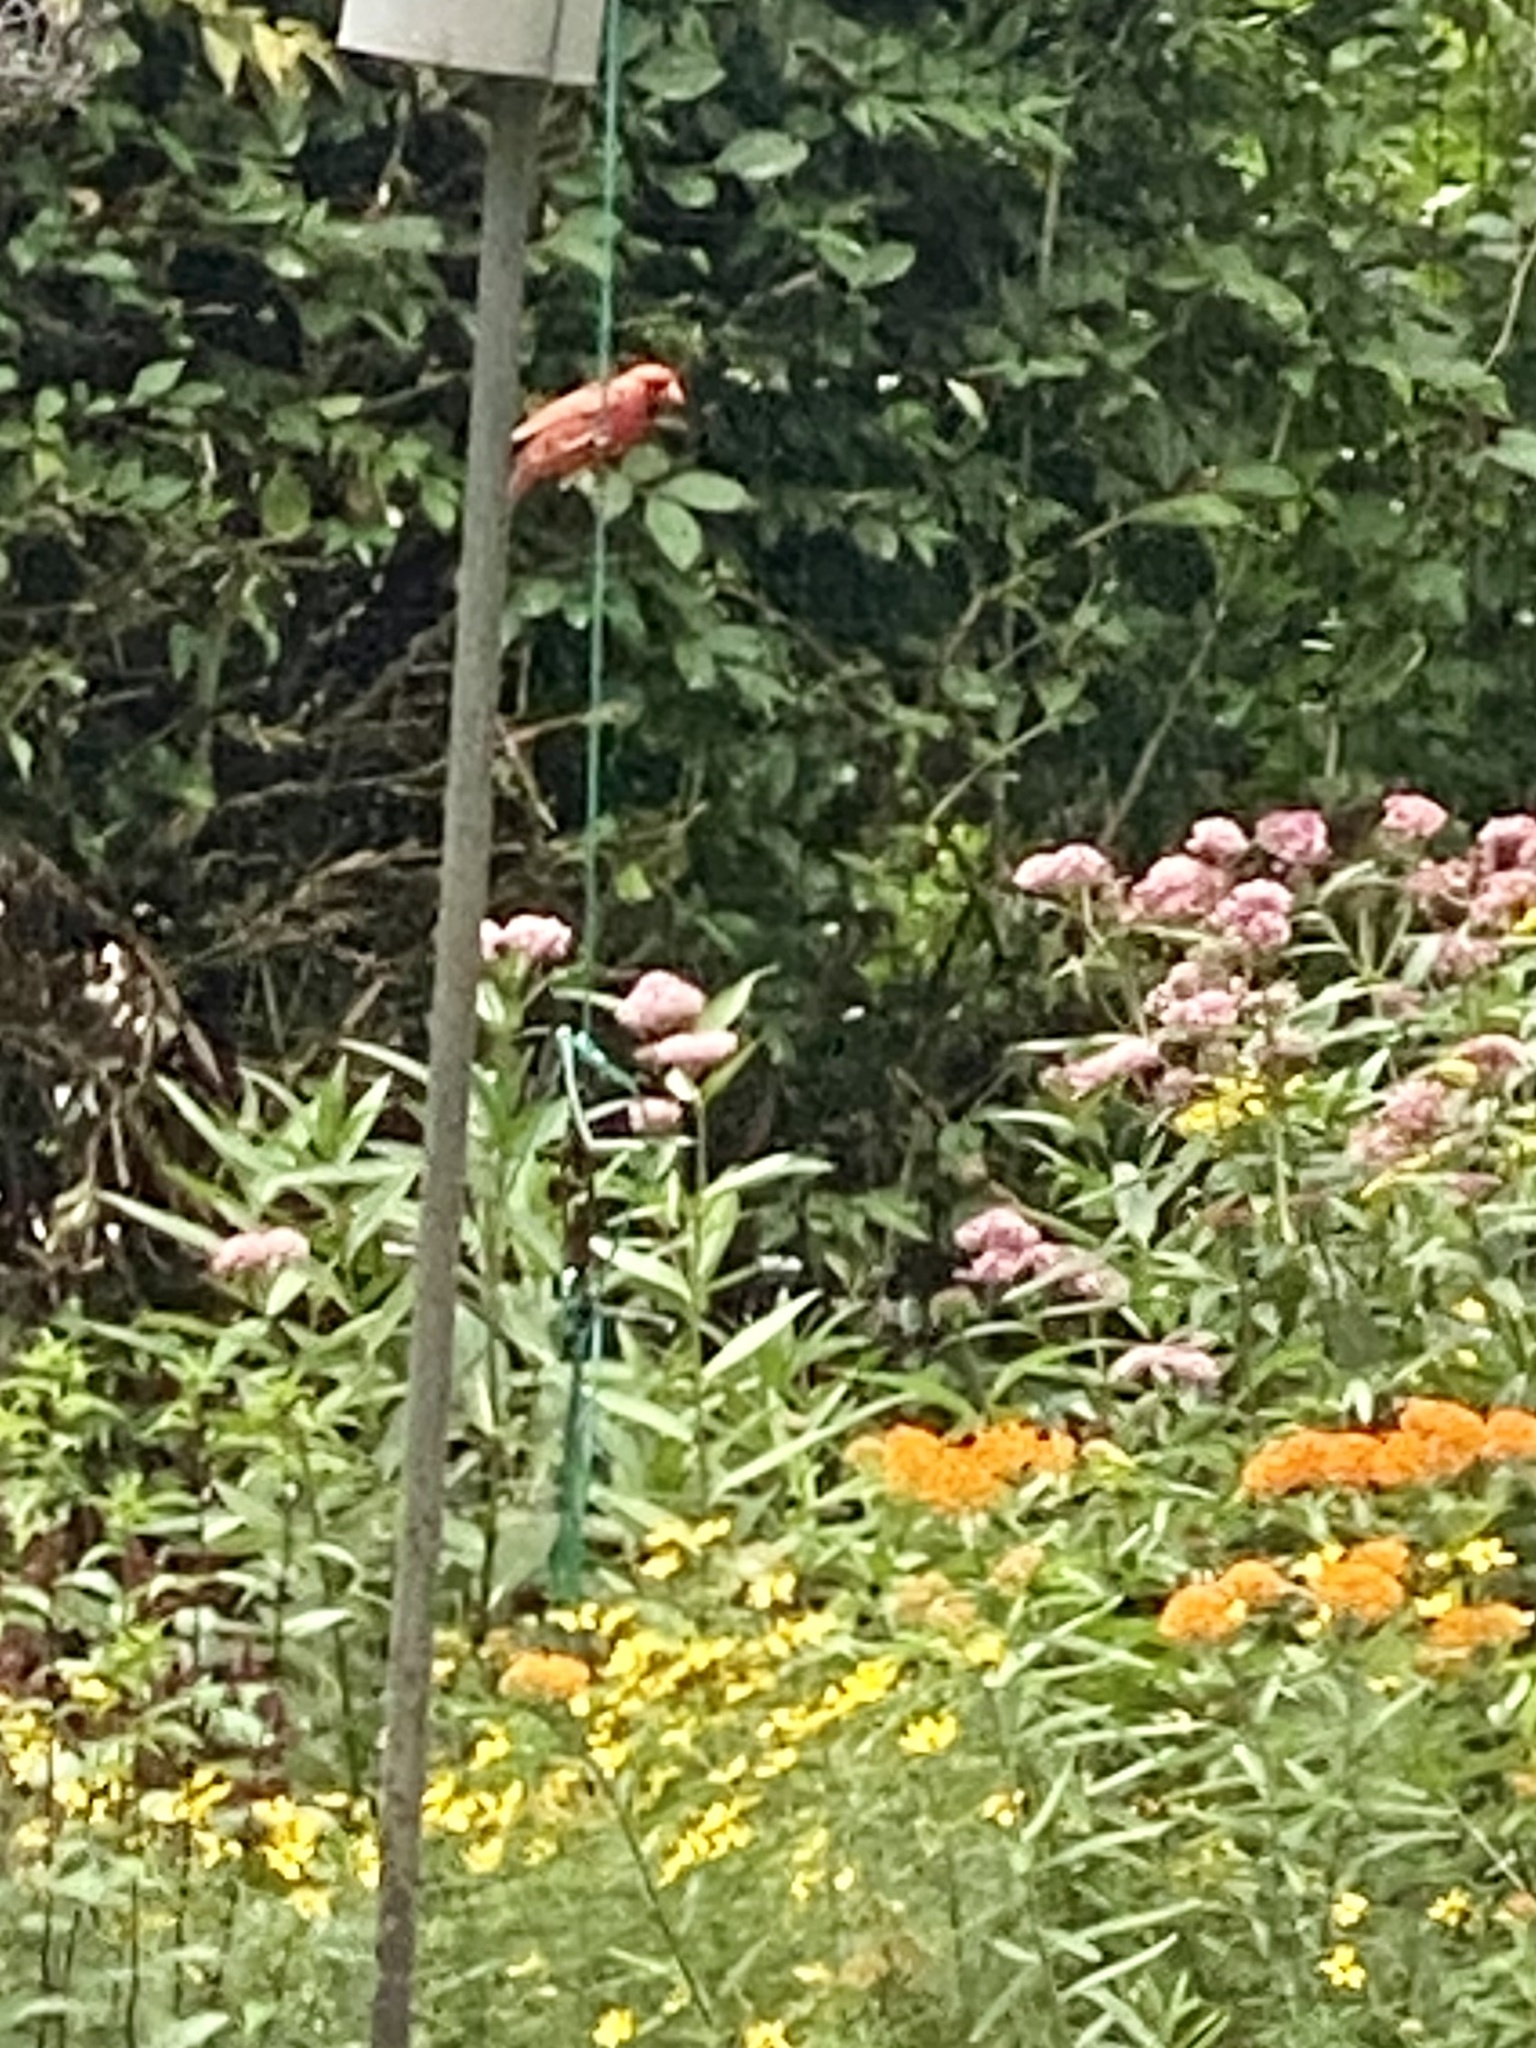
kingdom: Animalia
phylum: Chordata
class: Aves
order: Passeriformes
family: Cardinalidae
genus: Cardinalis
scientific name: Cardinalis cardinalis
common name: Northern cardinal
